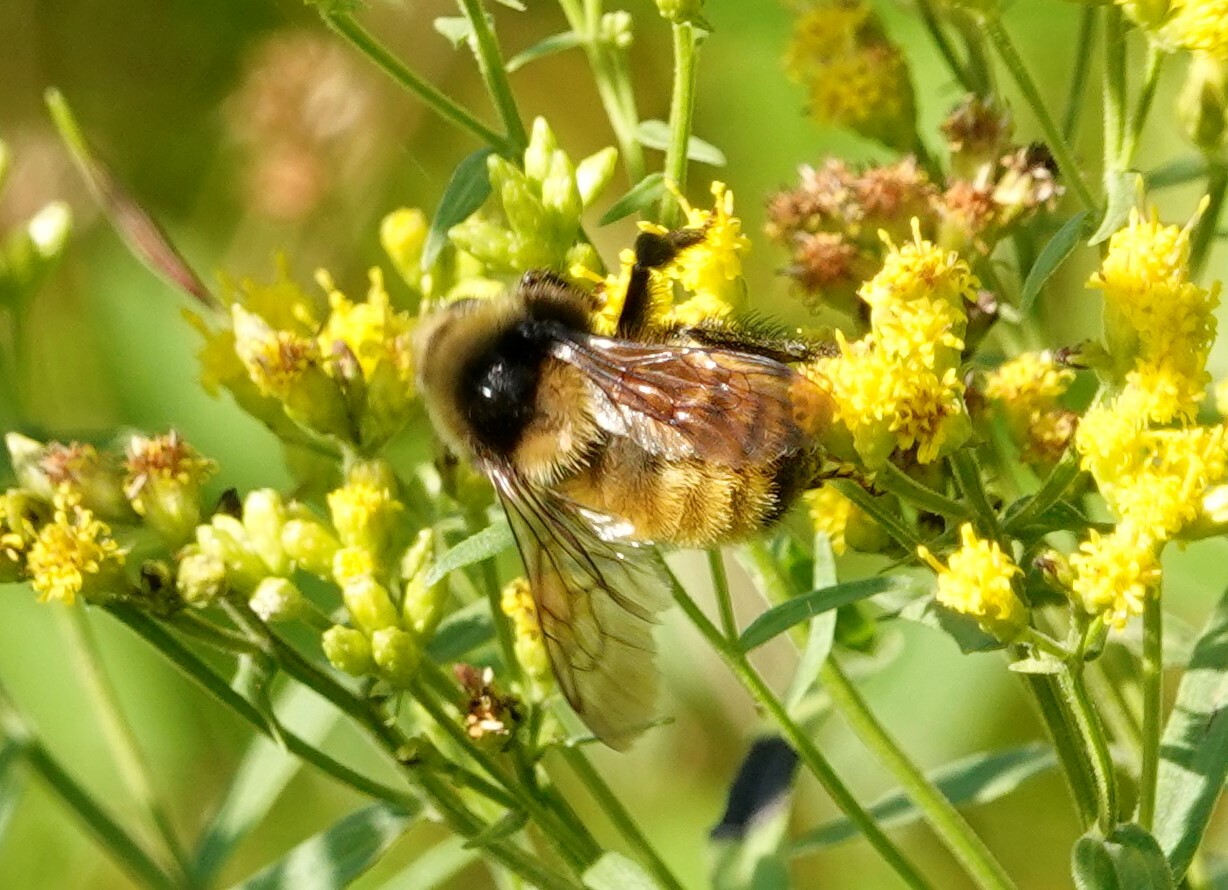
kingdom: Animalia
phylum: Arthropoda
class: Insecta
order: Hymenoptera
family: Apidae
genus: Bombus
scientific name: Bombus borealis
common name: Northern amber bumble bee
